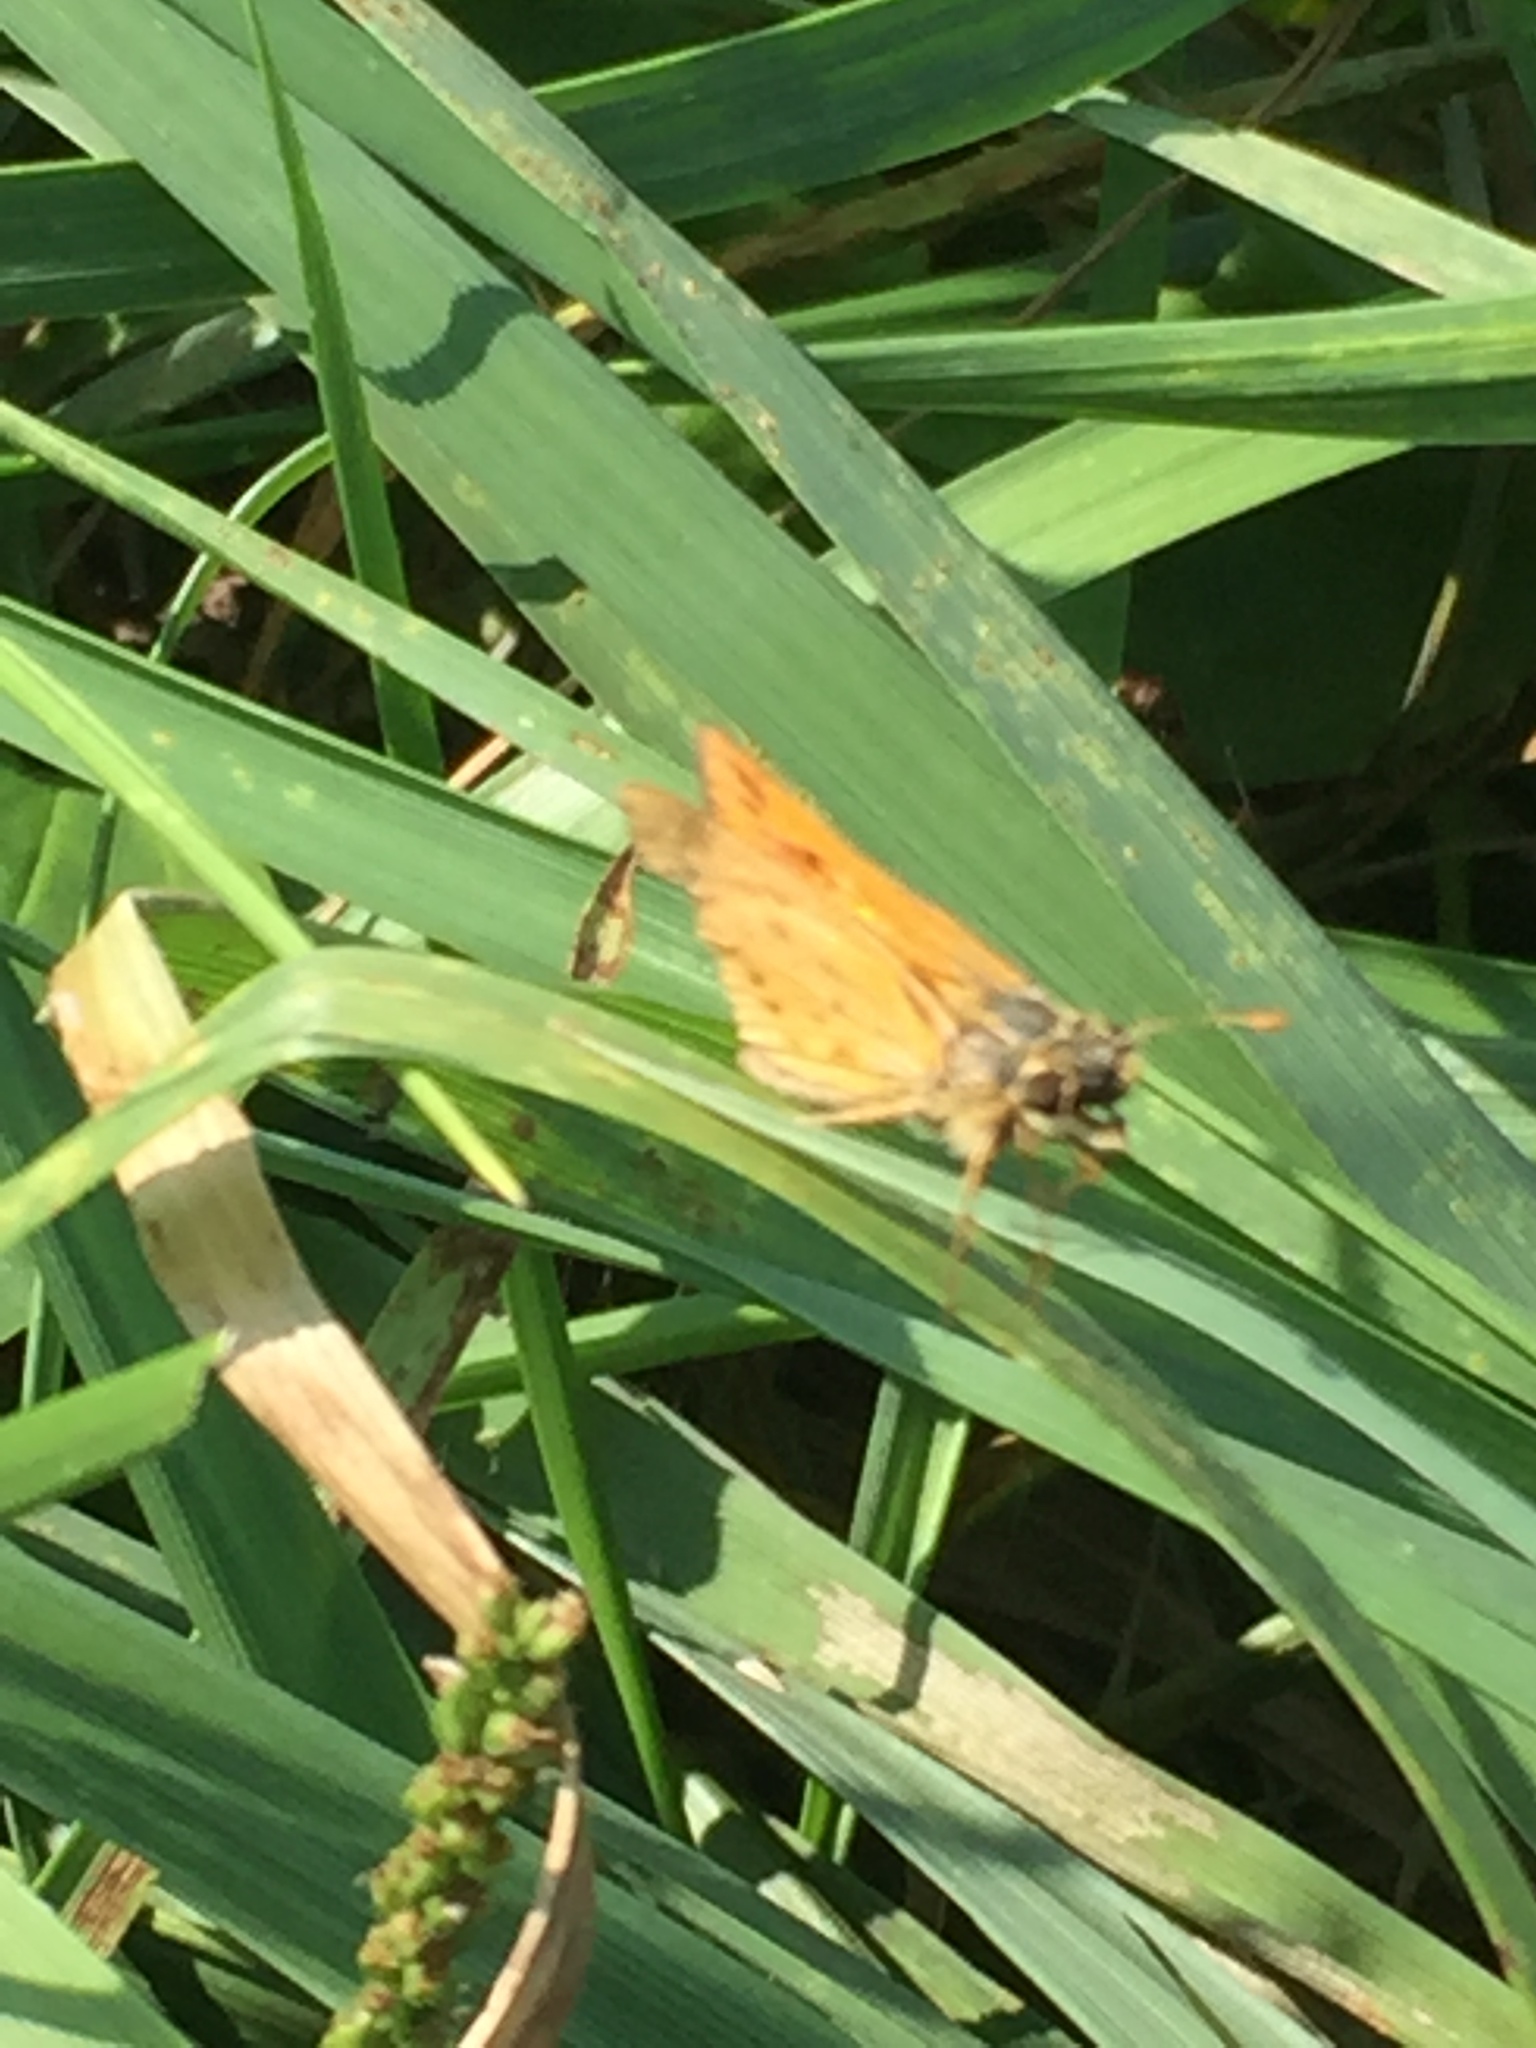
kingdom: Animalia
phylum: Arthropoda
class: Insecta
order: Lepidoptera
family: Hesperiidae
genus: Hylephila
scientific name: Hylephila phyleus
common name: Fiery skipper
